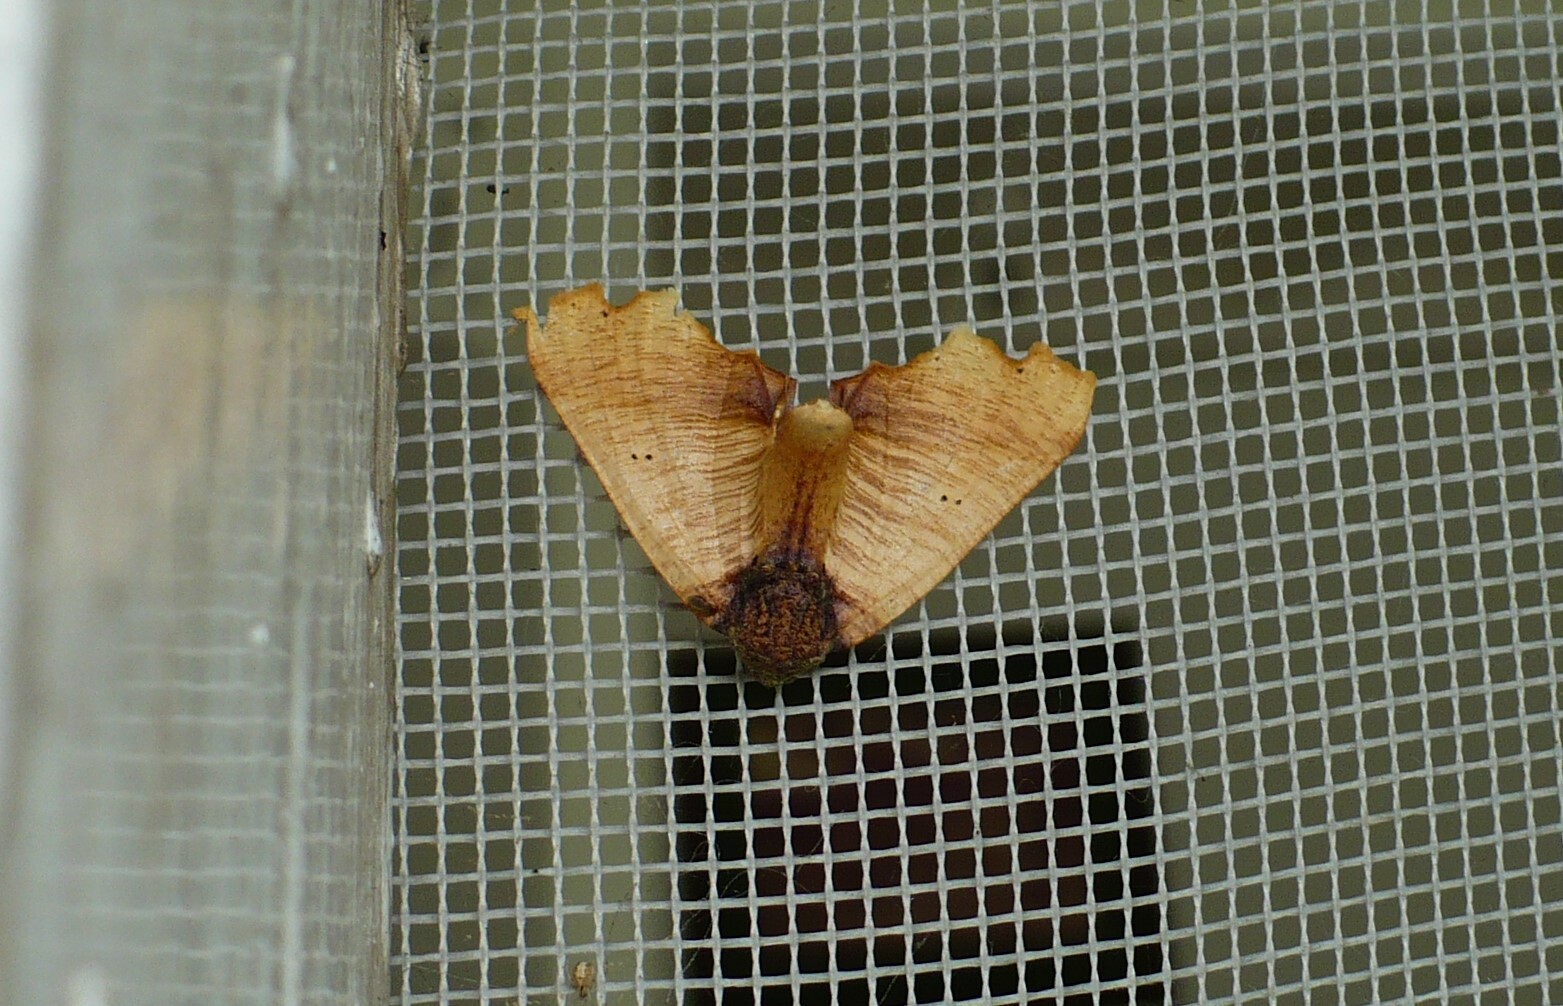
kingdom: Animalia
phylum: Arthropoda
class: Insecta
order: Lepidoptera
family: Geometridae
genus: Pero
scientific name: Pero plagodiata
